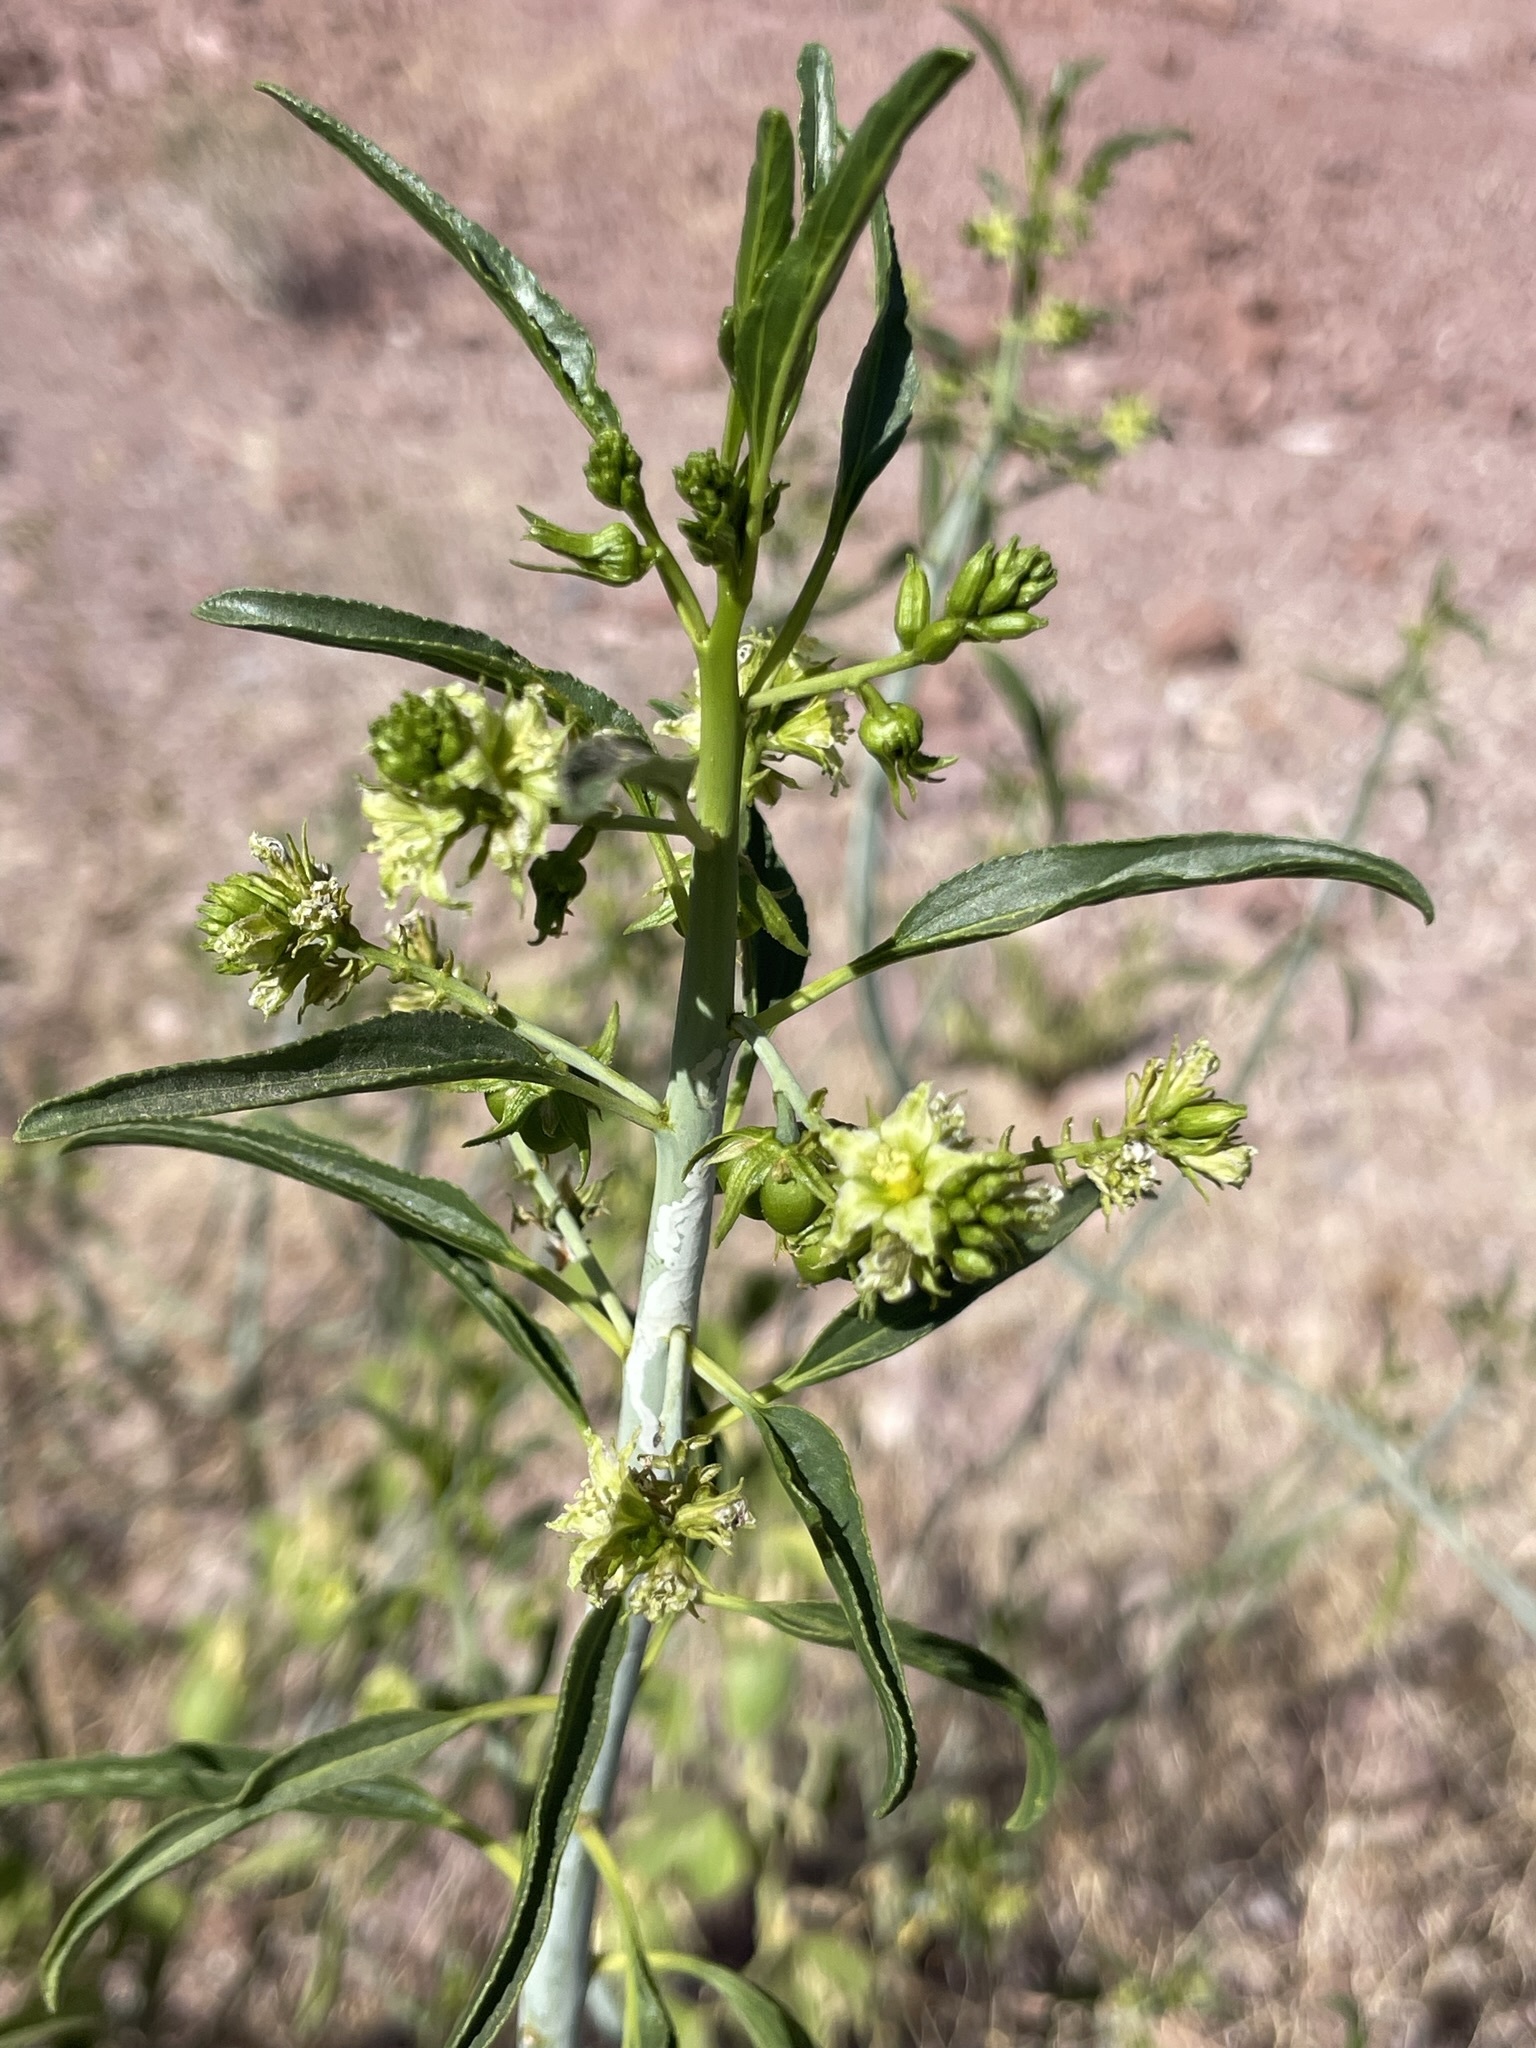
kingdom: Plantae
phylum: Tracheophyta
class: Magnoliopsida
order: Malpighiales
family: Euphorbiaceae
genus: Ditaxis
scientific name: Ditaxis brandegeei
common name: Sonoran silverbush
